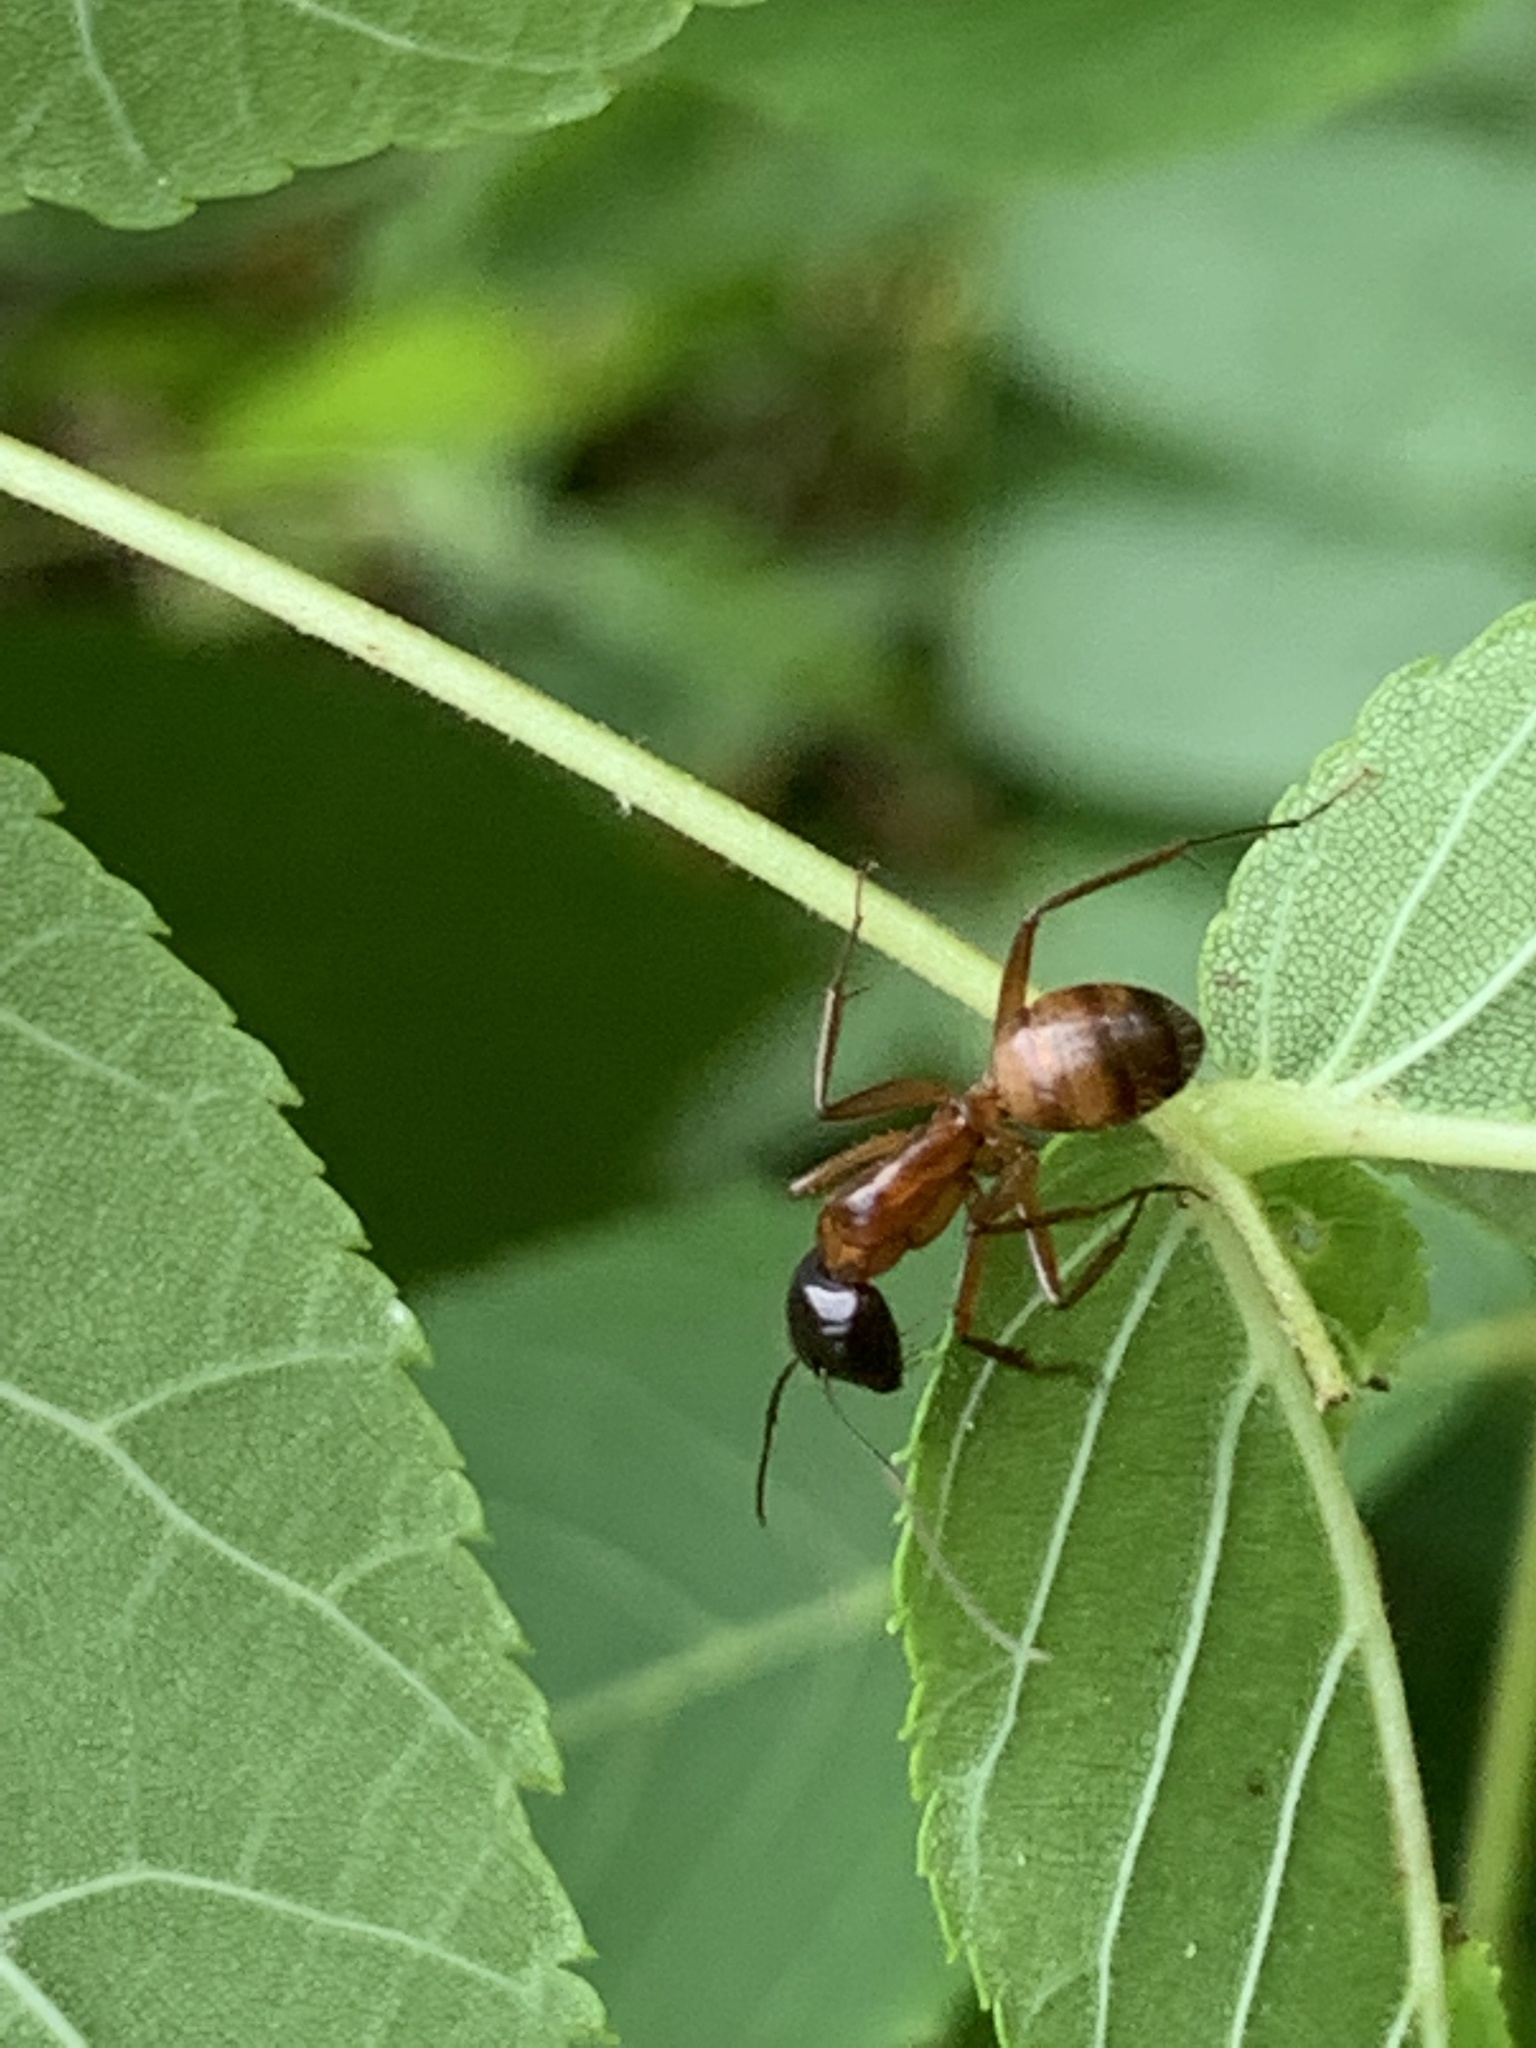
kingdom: Animalia
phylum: Arthropoda
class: Insecta
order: Hymenoptera
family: Formicidae
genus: Camponotus
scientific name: Camponotus americanus
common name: American carpenter ant
